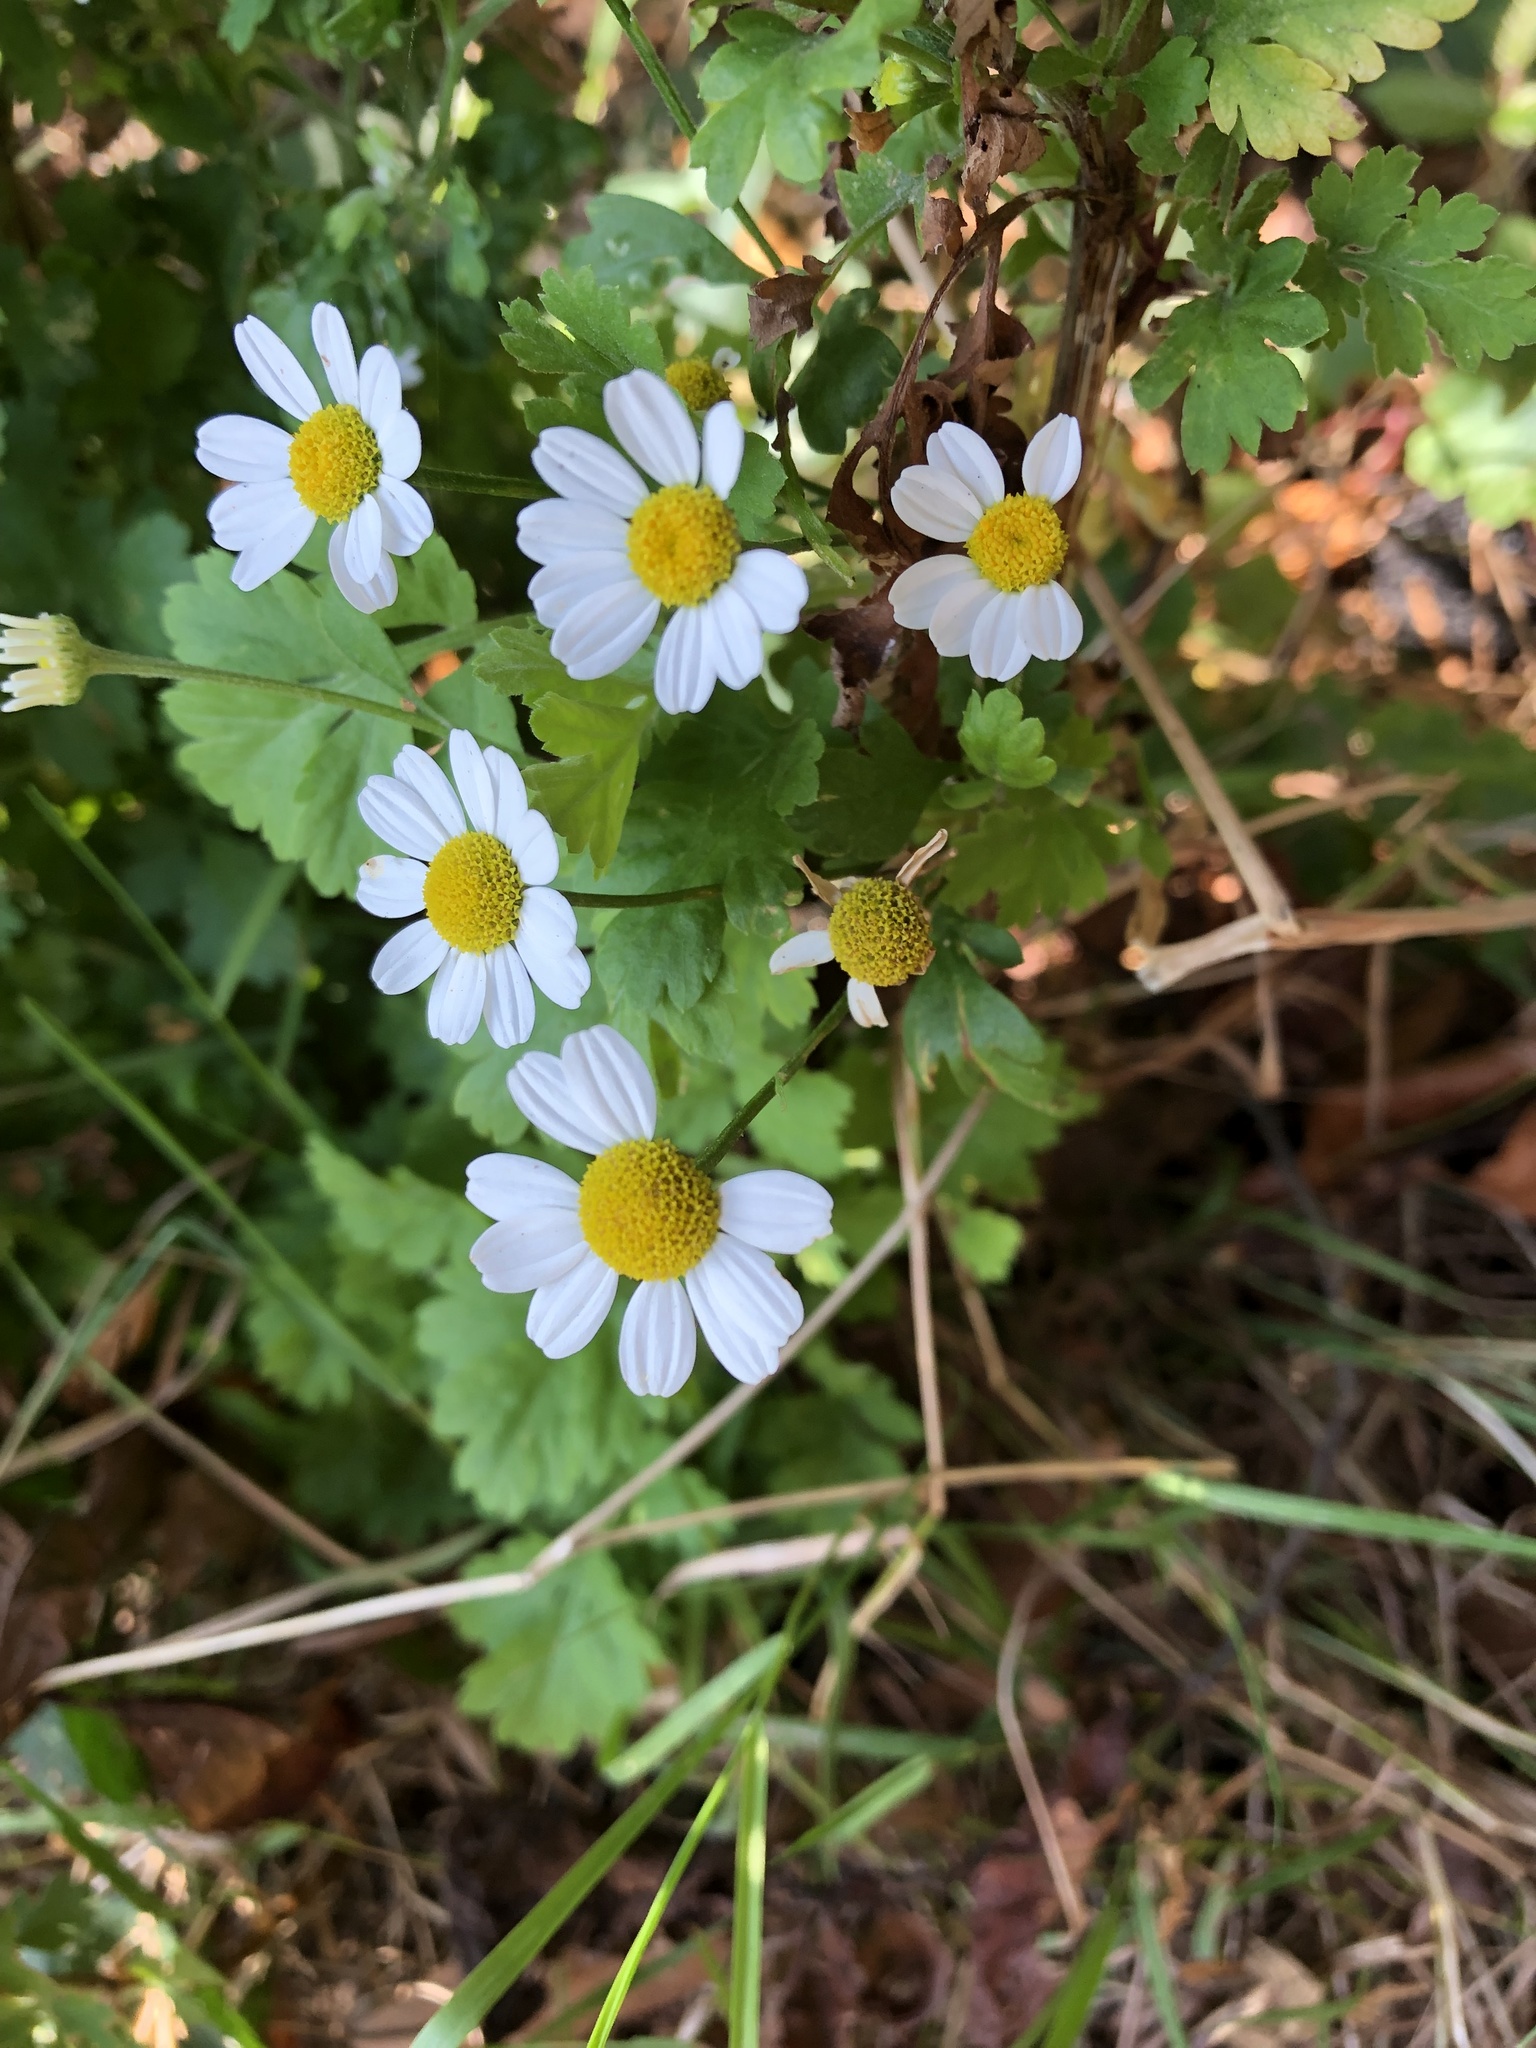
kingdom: Plantae
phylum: Tracheophyta
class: Magnoliopsida
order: Asterales
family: Asteraceae
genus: Tanacetum
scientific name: Tanacetum parthenium
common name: Feverfew
